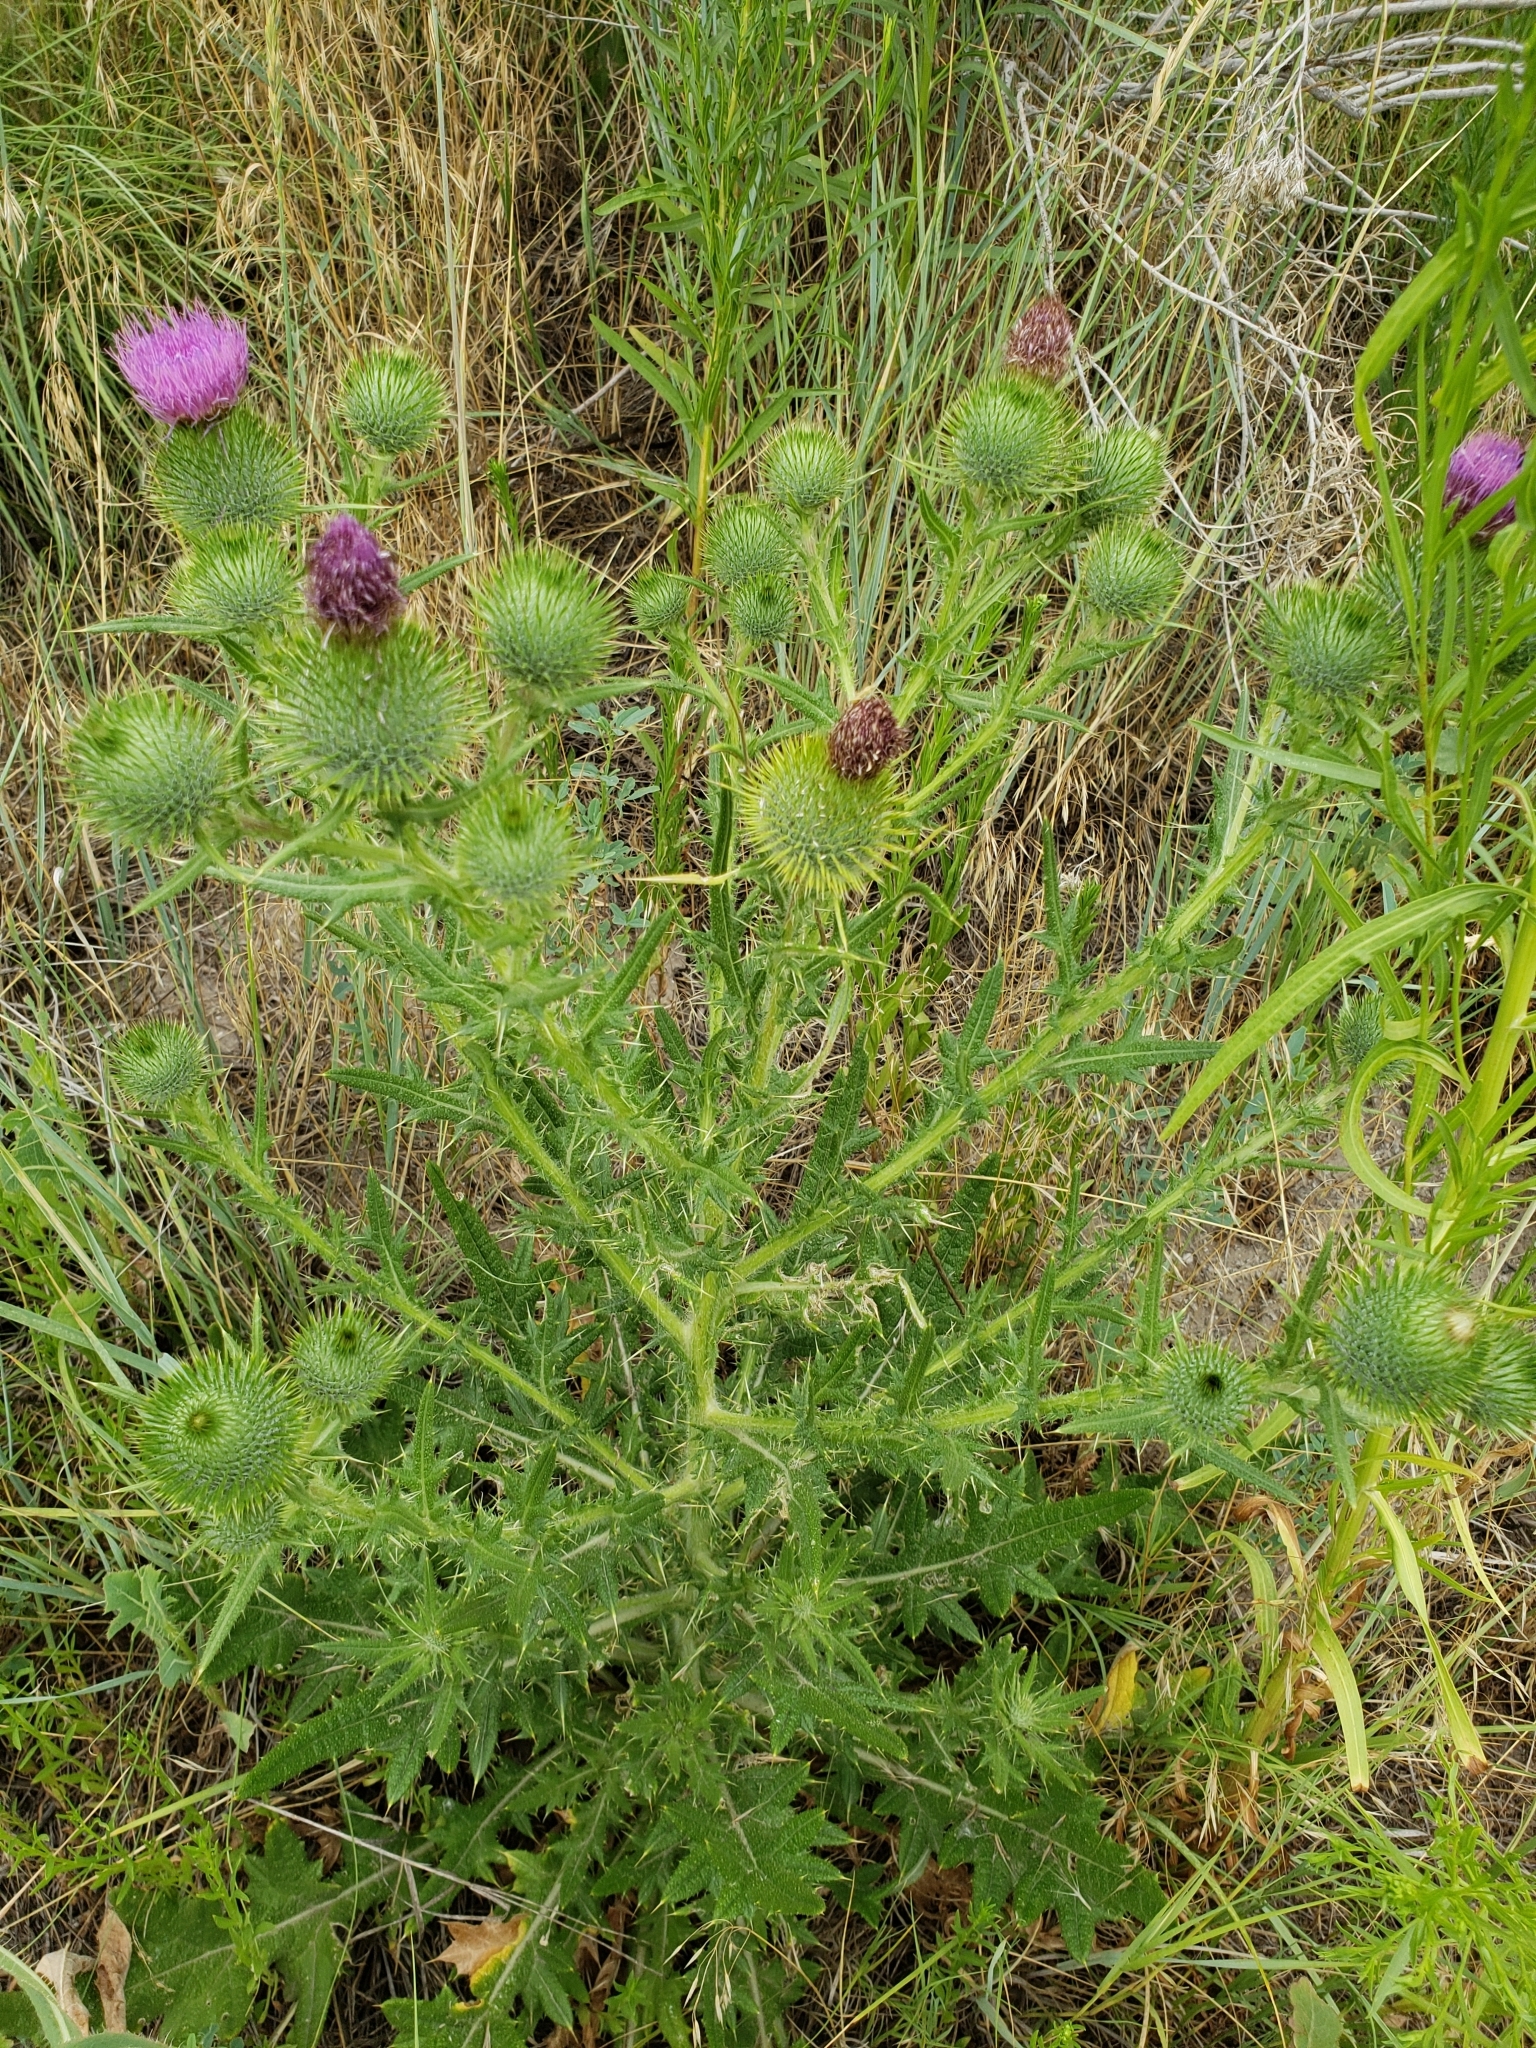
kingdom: Plantae
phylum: Tracheophyta
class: Magnoliopsida
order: Asterales
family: Asteraceae
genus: Cirsium
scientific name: Cirsium vulgare
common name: Bull thistle
